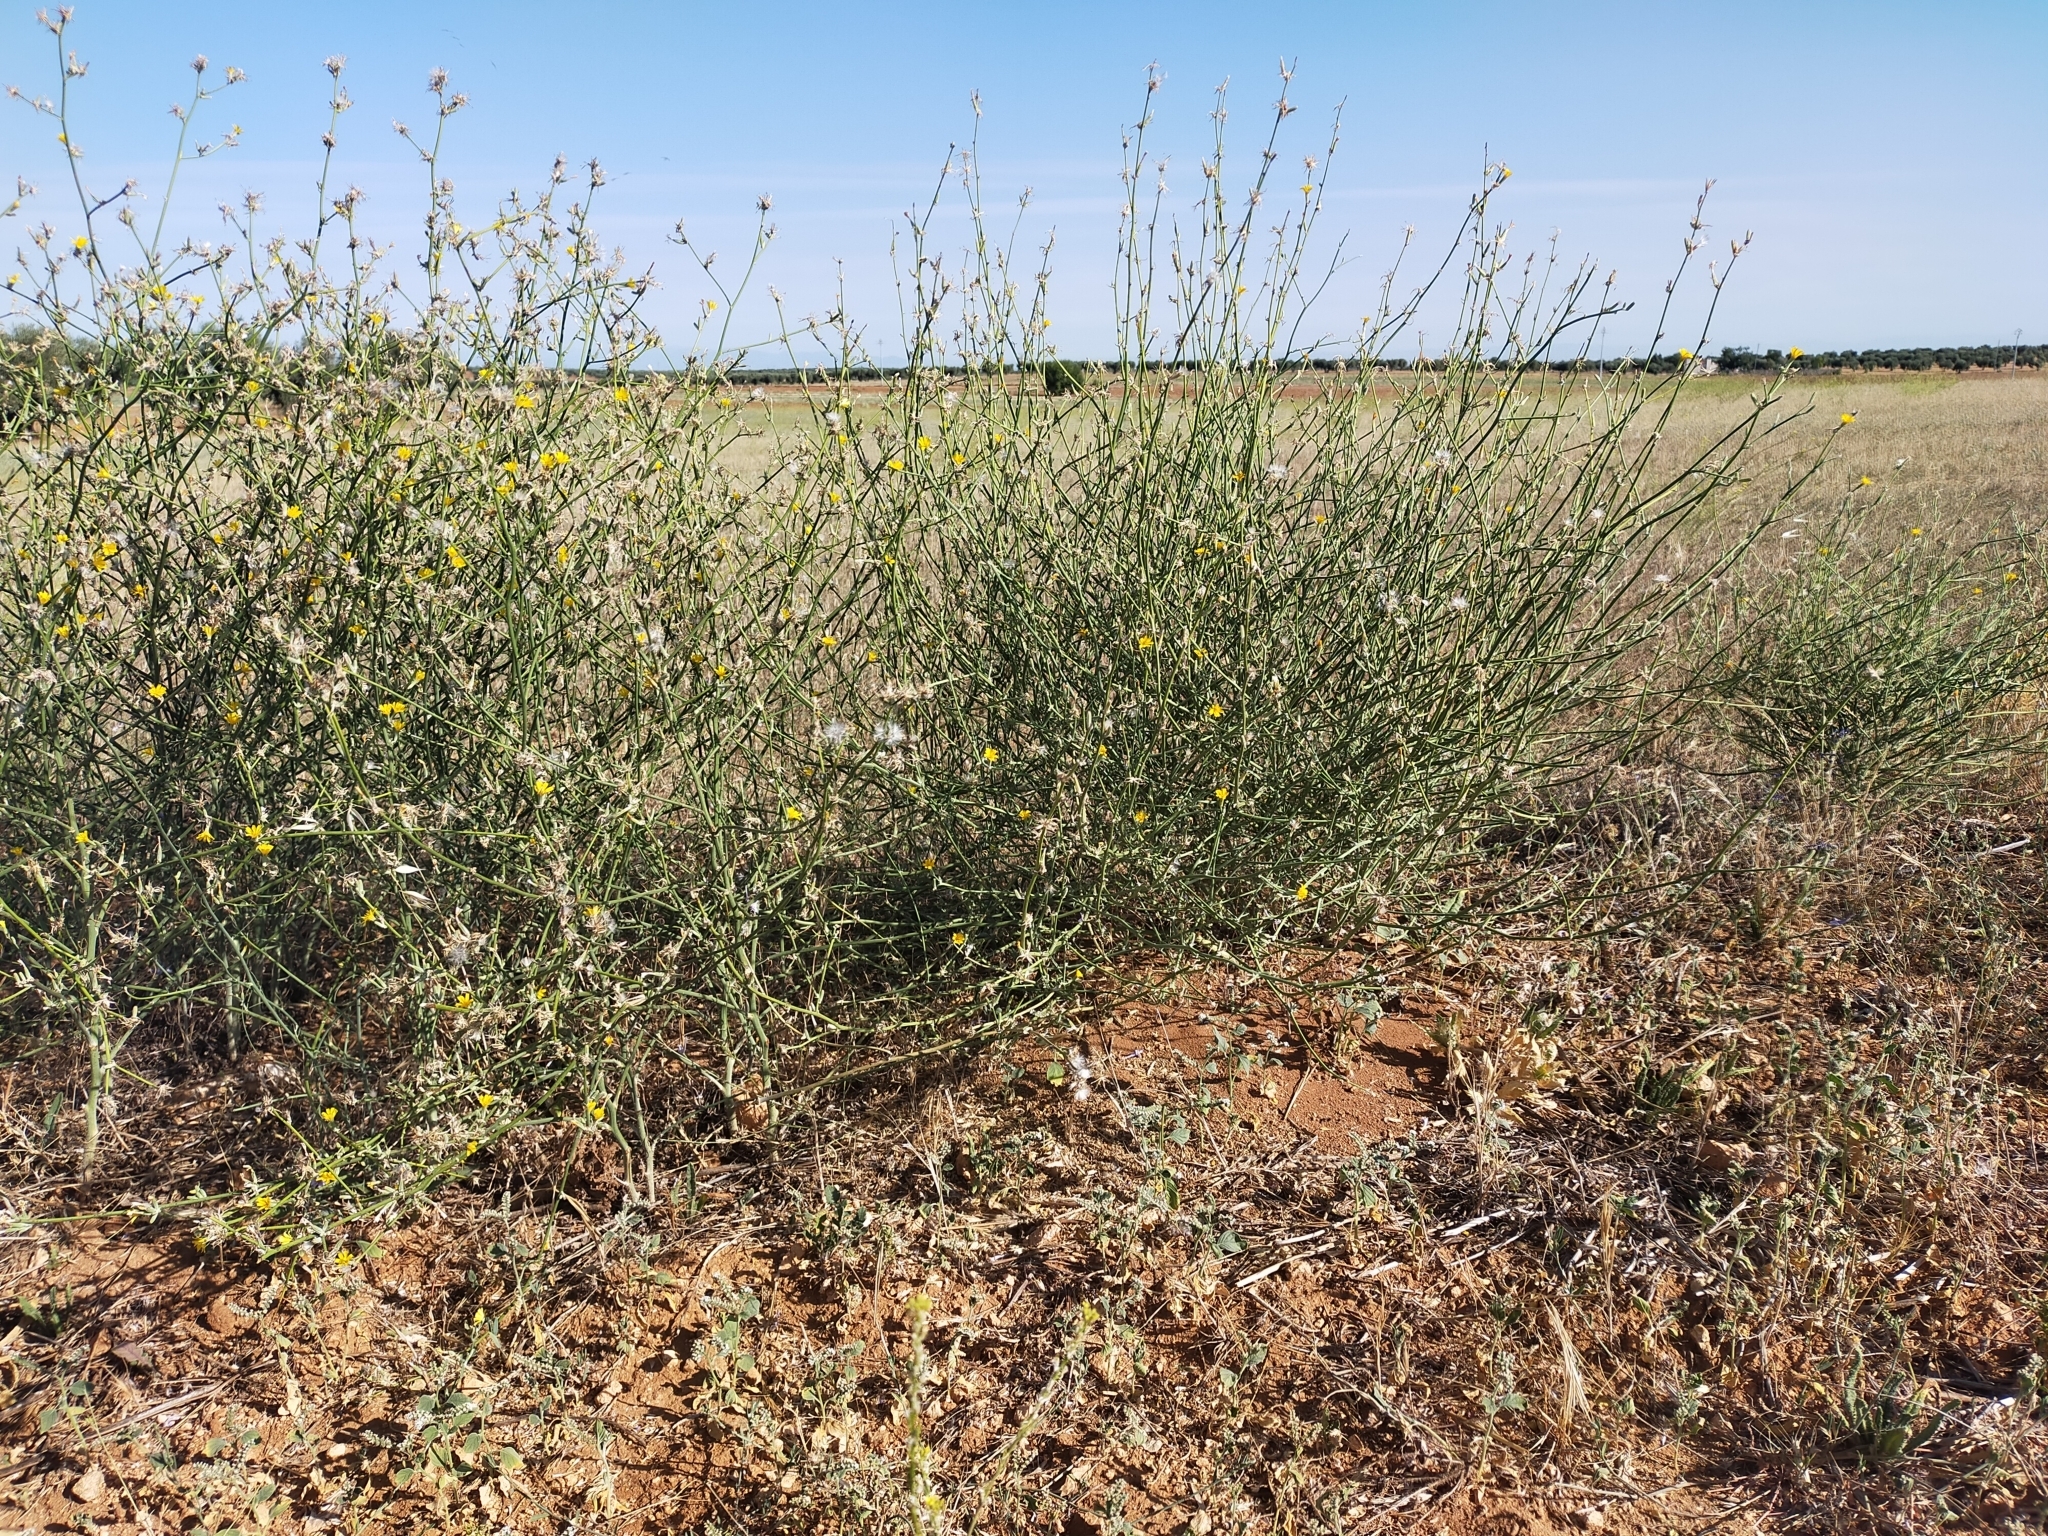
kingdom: Plantae
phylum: Tracheophyta
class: Magnoliopsida
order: Asterales
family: Asteraceae
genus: Chondrilla
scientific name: Chondrilla juncea
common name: Skeleton weed
